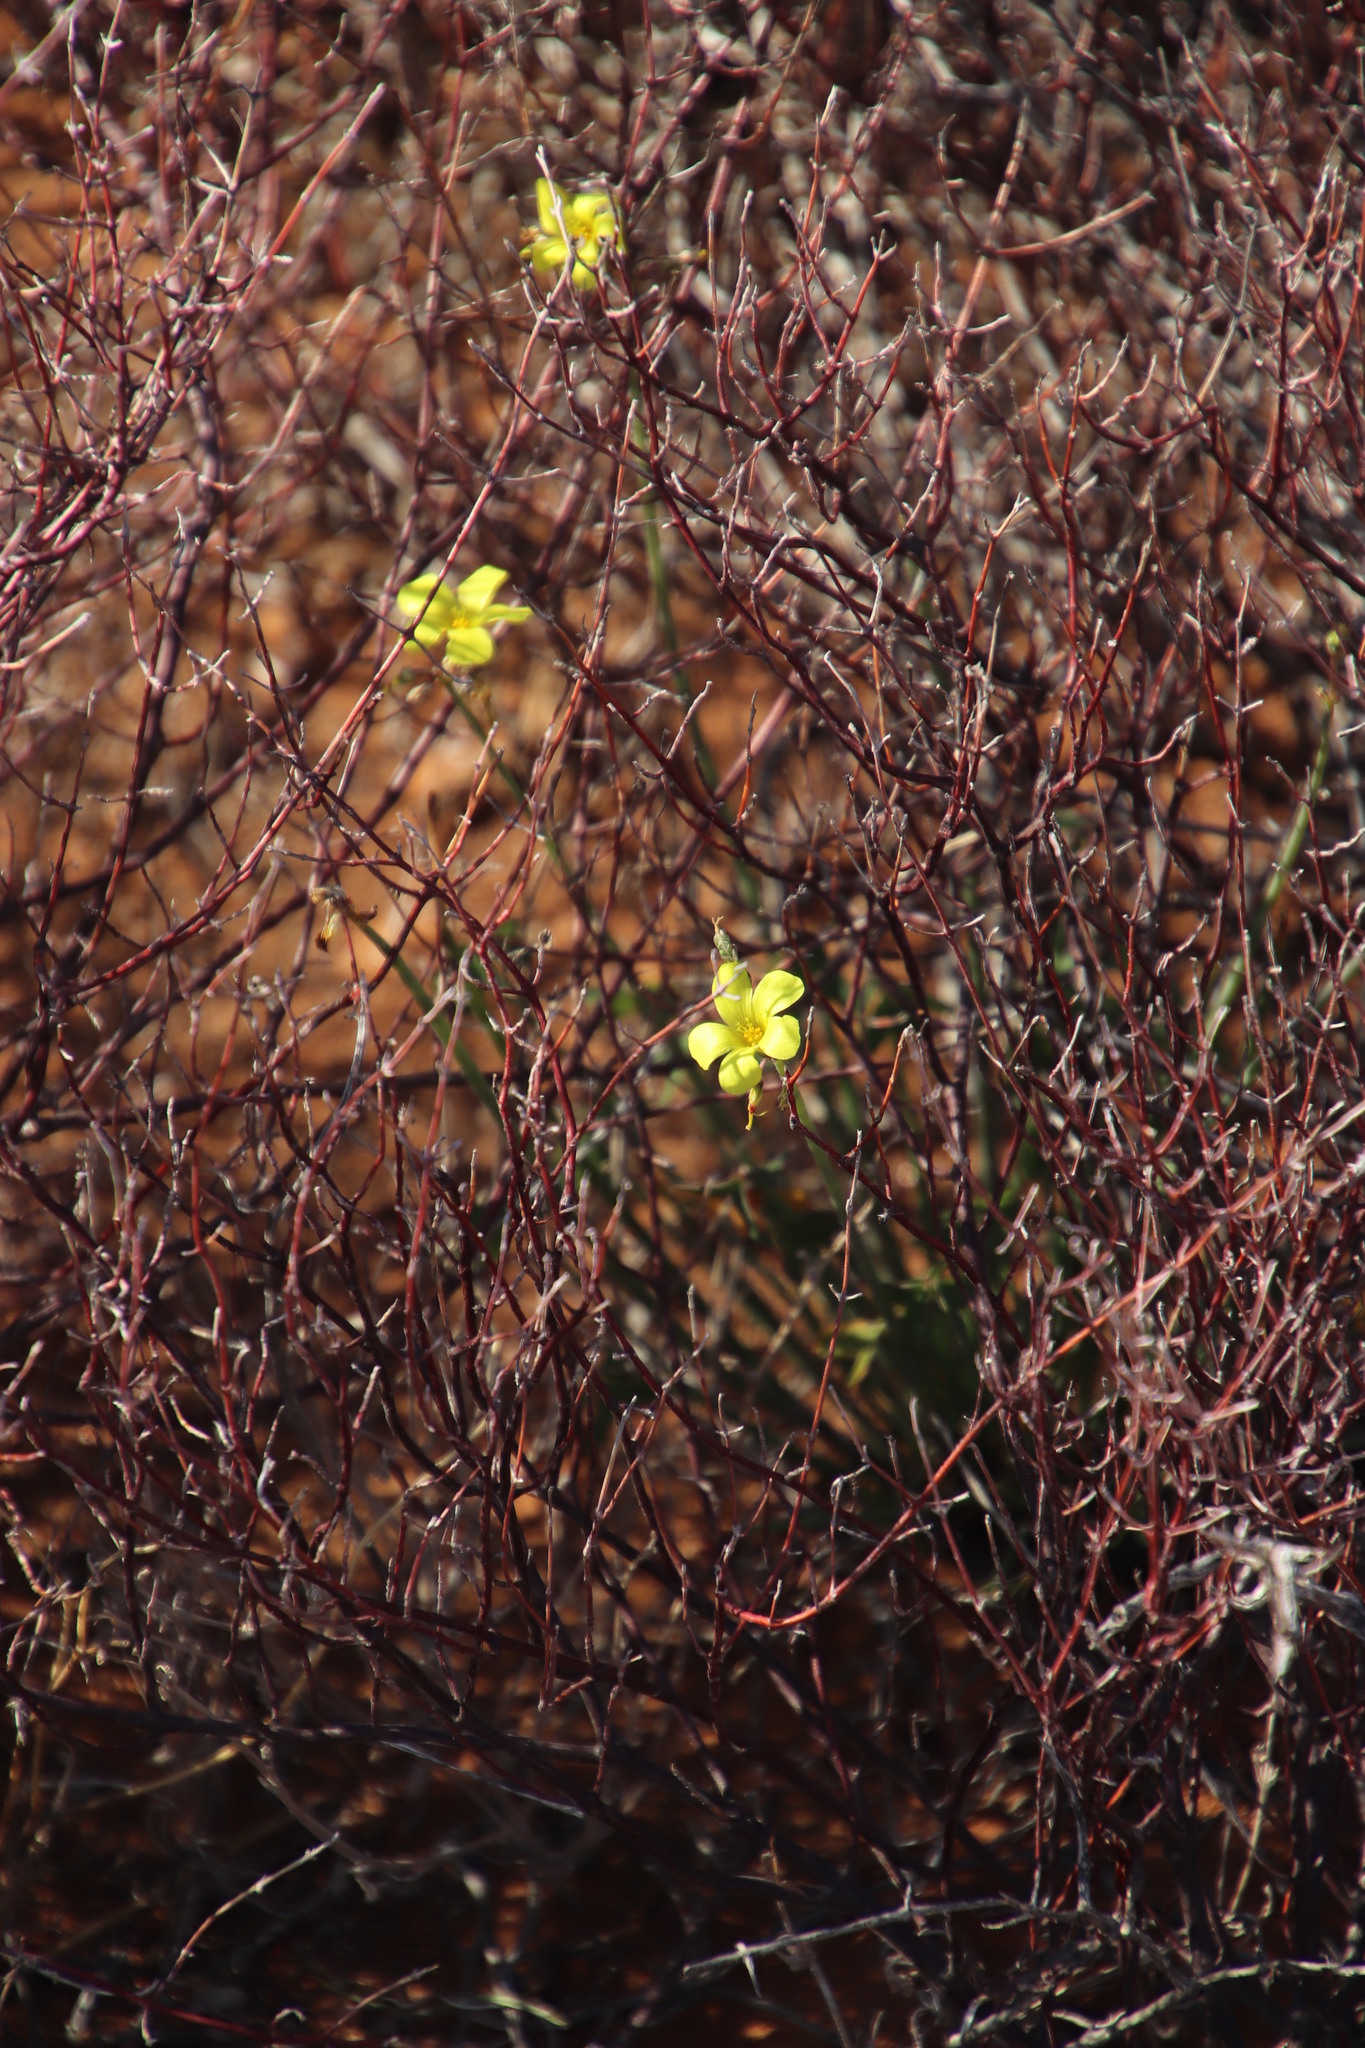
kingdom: Plantae
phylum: Tracheophyta
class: Magnoliopsida
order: Oxalidales
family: Oxalidaceae
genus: Oxalis
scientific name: Oxalis pes-caprae
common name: Bermuda-buttercup
